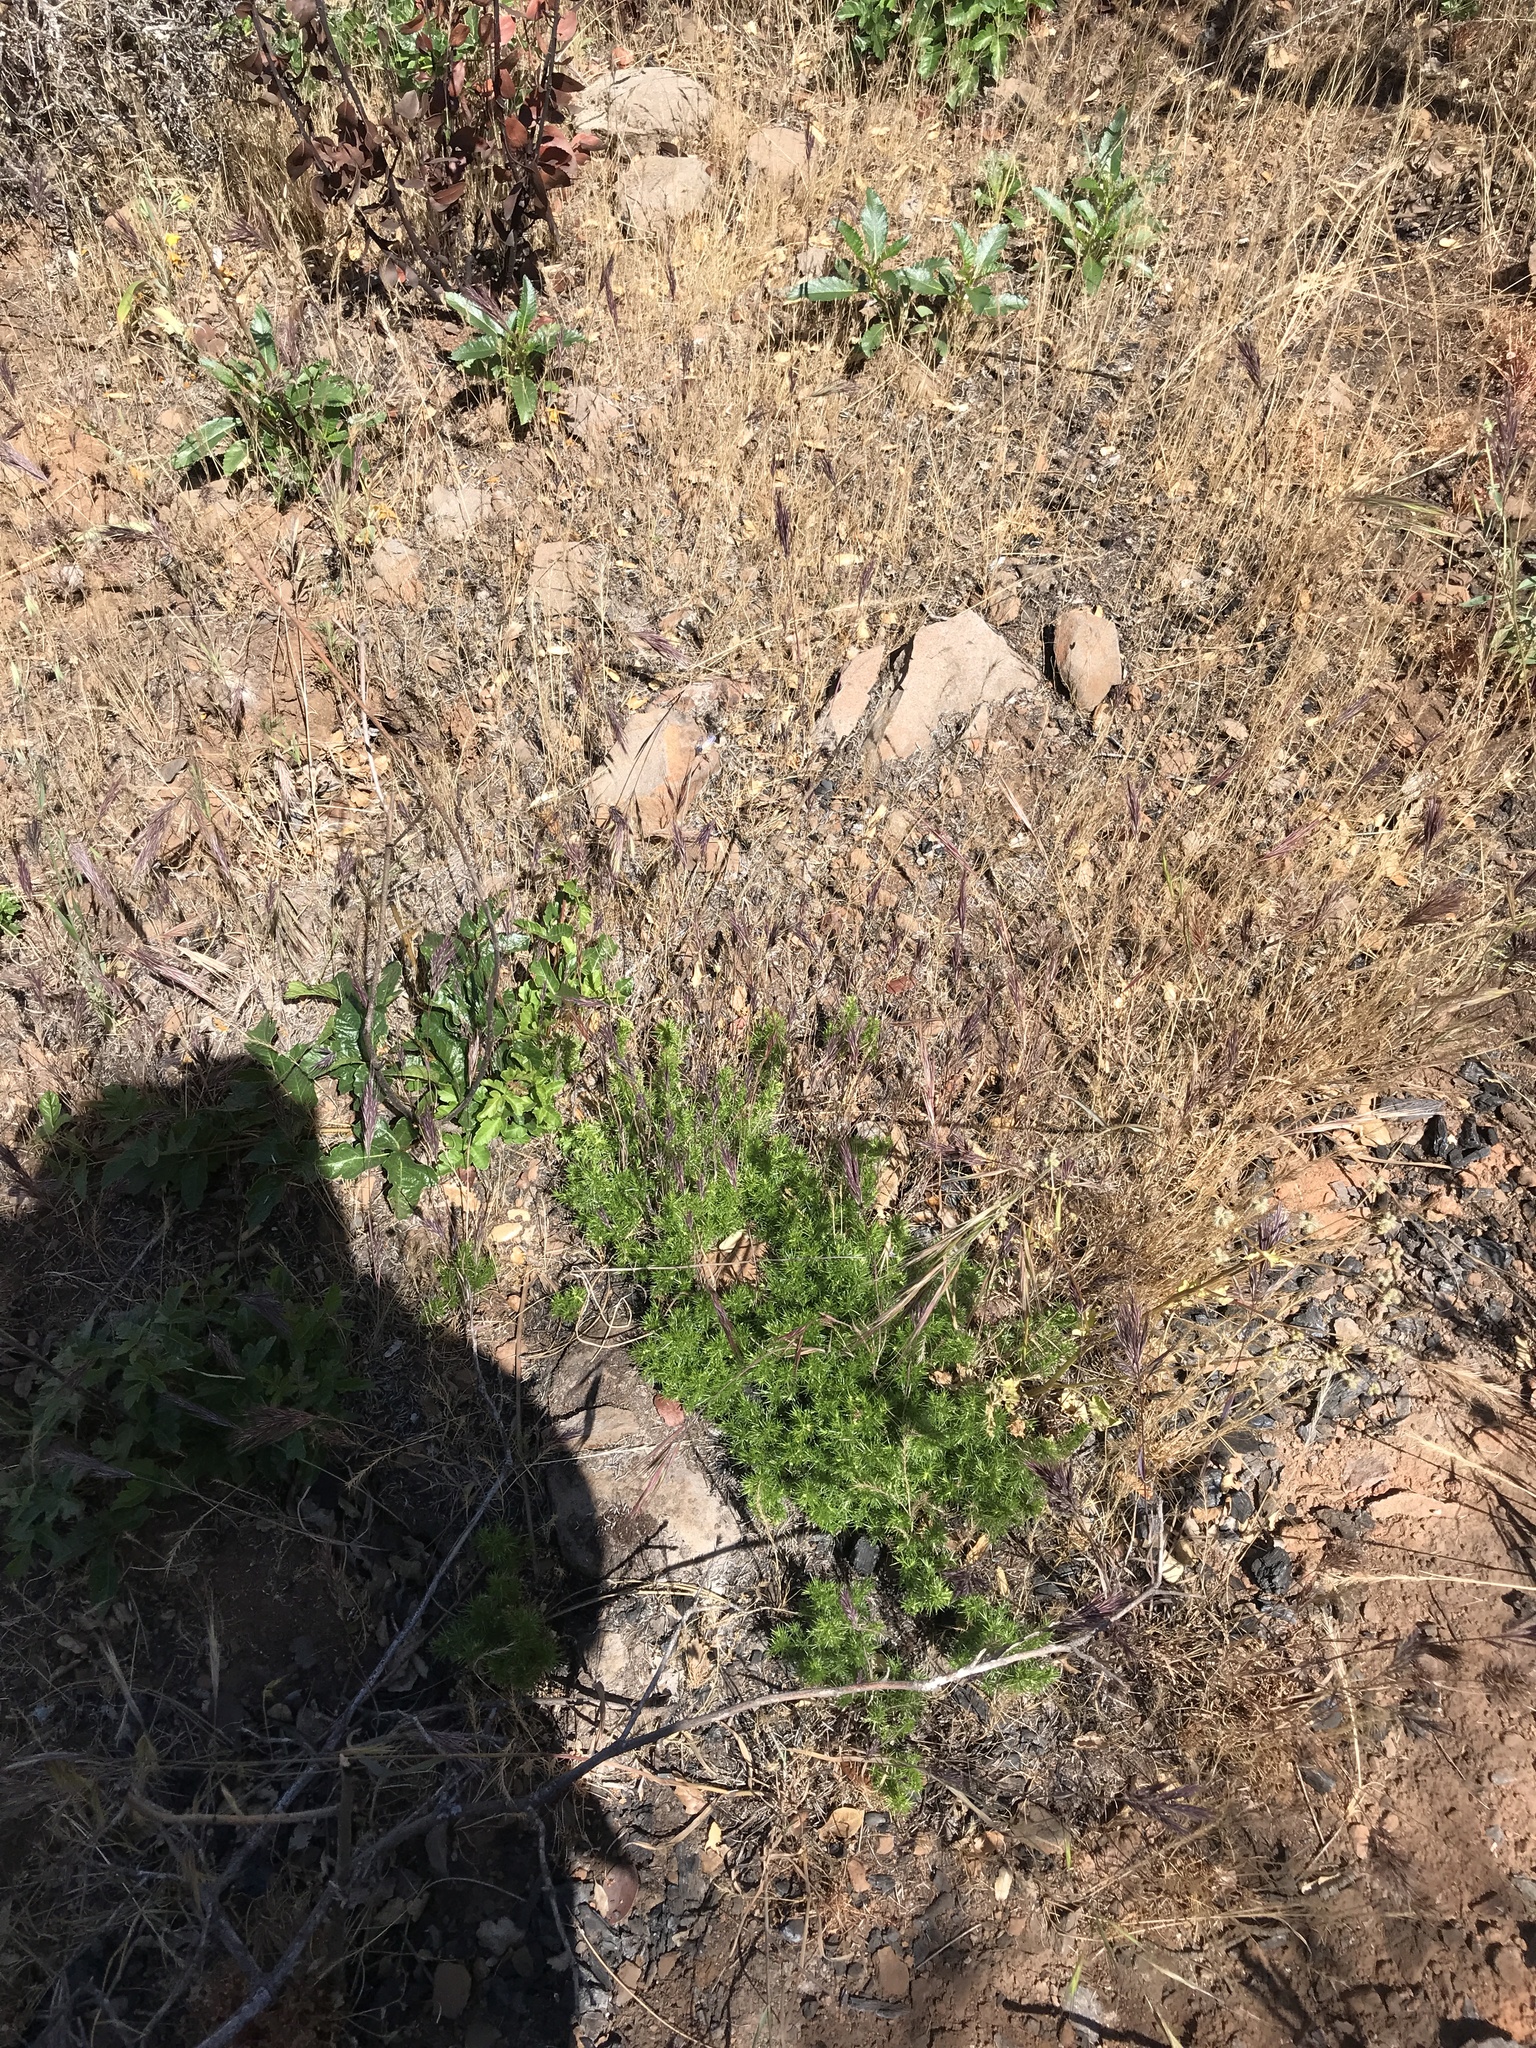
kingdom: Plantae
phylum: Tracheophyta
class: Magnoliopsida
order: Gentianales
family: Rubiaceae
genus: Galium
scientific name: Galium andrewsii
